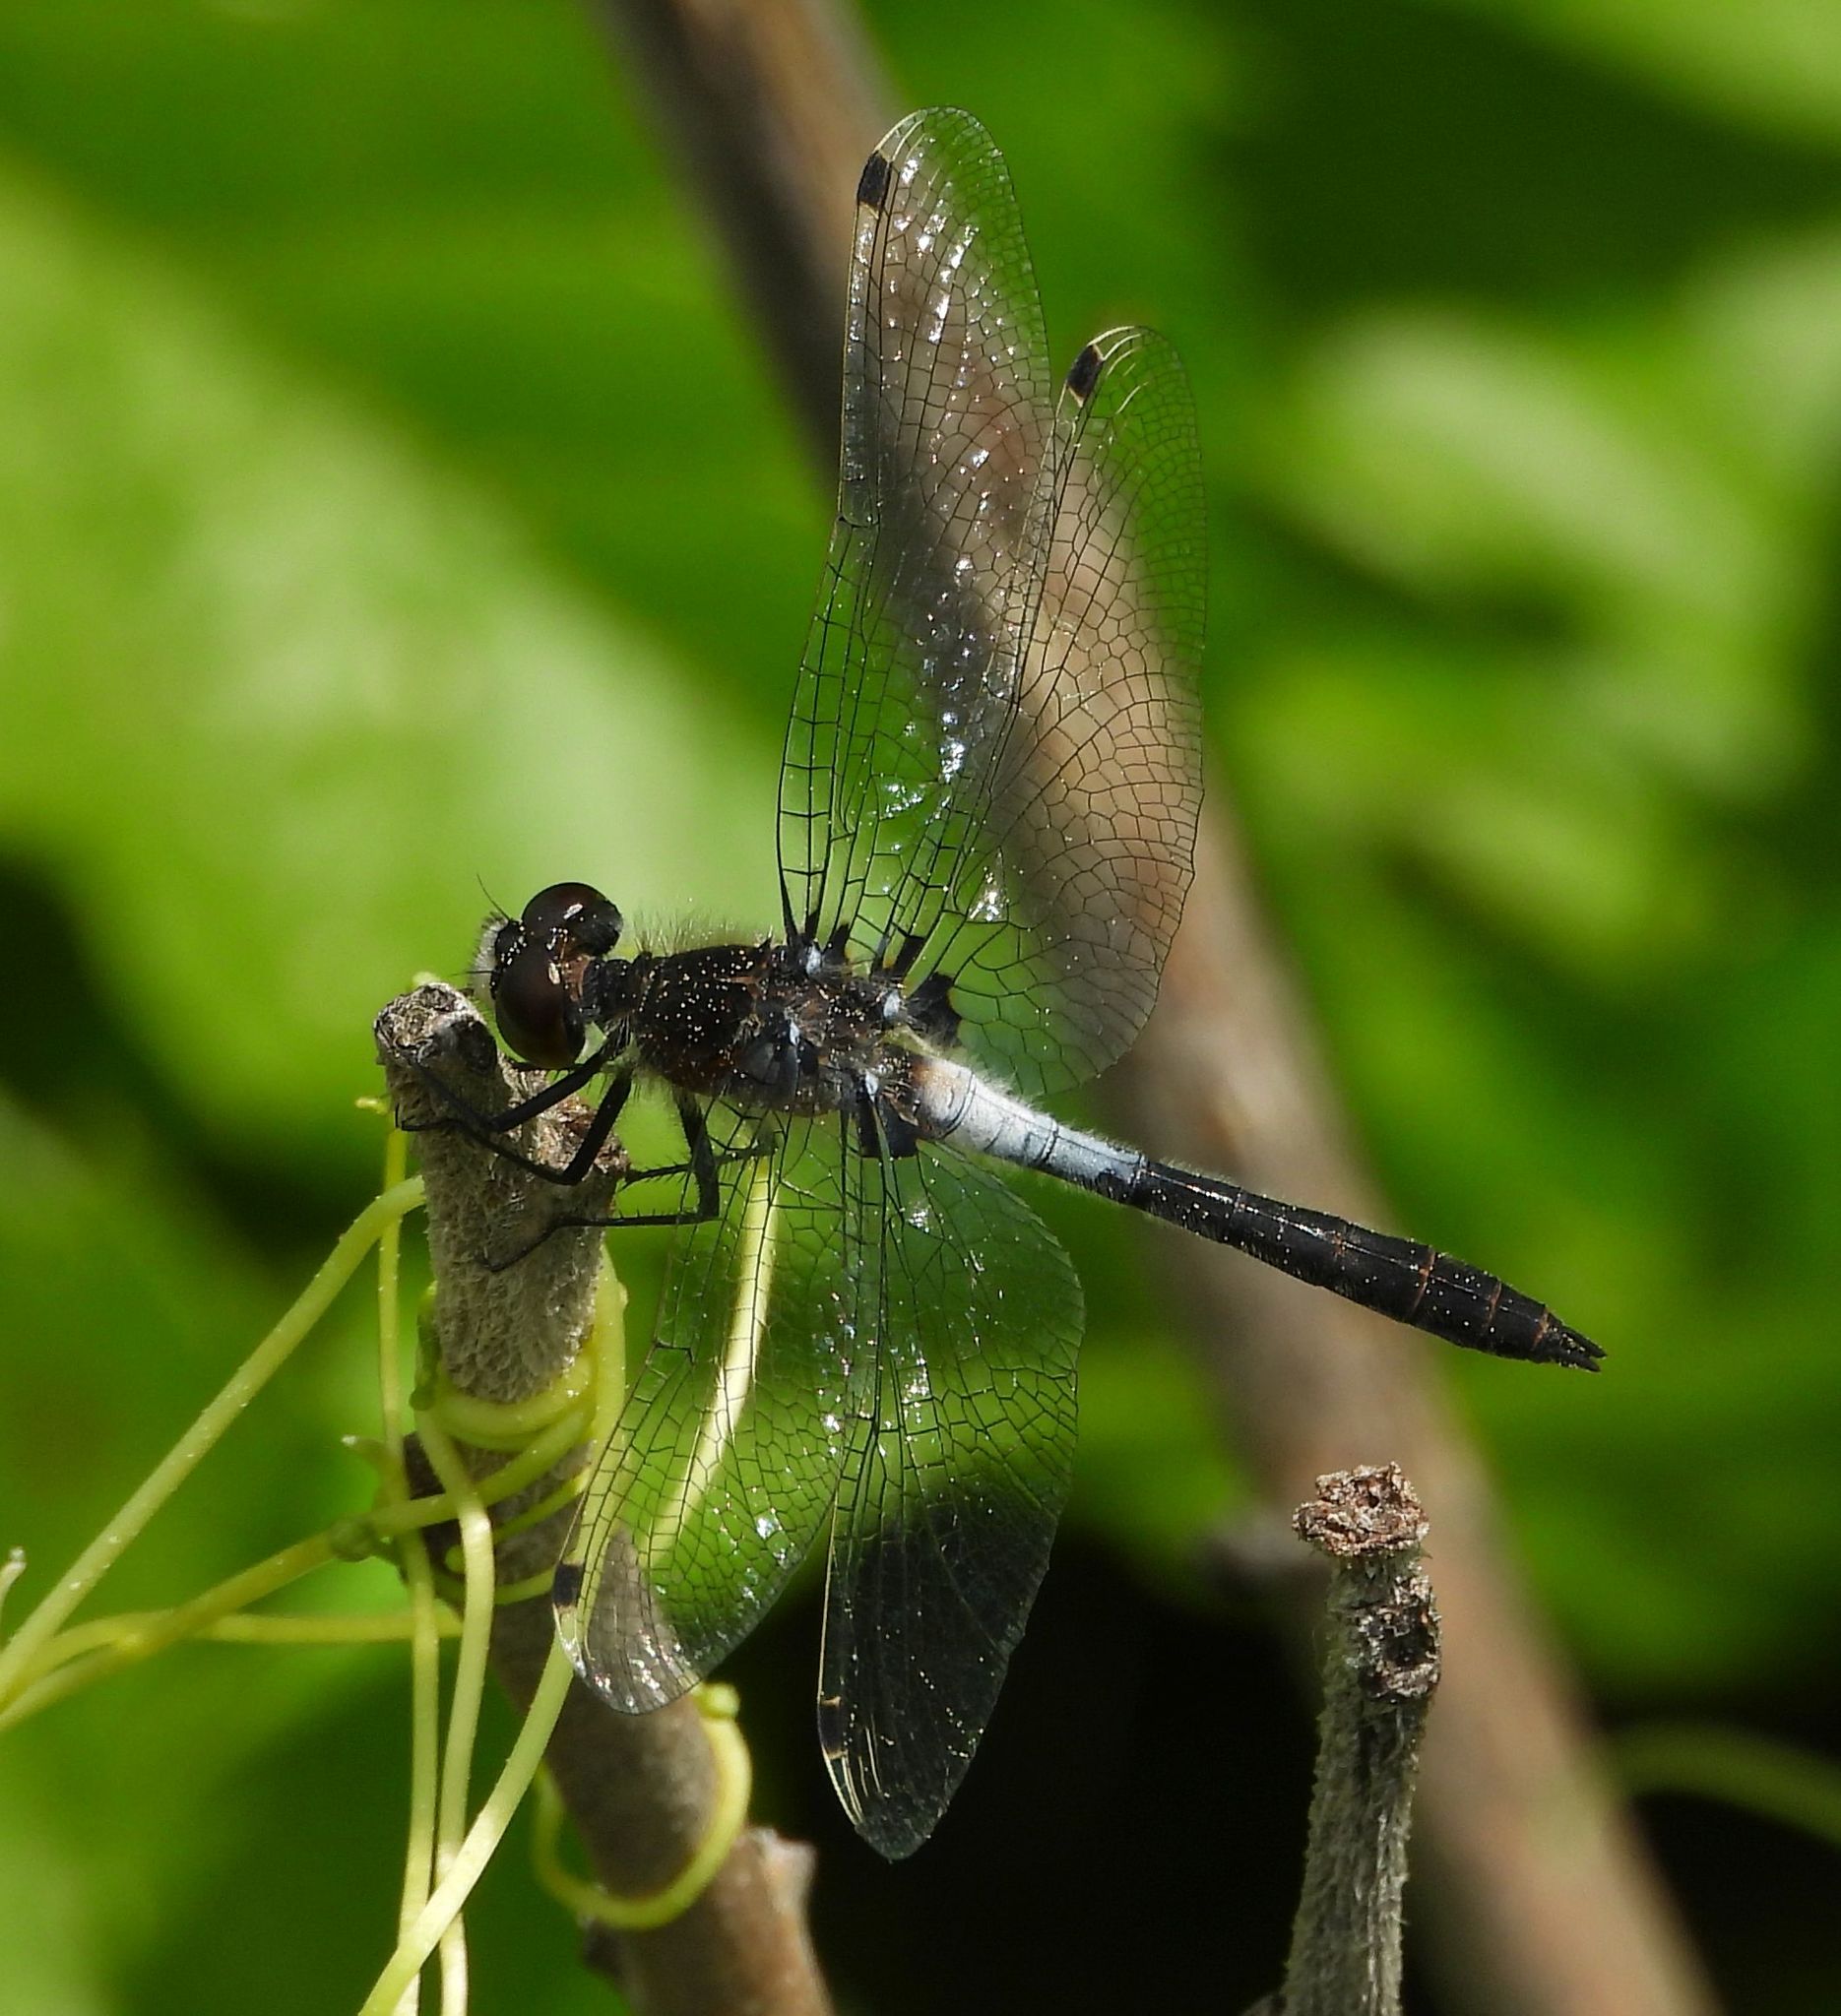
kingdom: Animalia
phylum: Arthropoda
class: Insecta
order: Odonata
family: Libellulidae
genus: Leucorrhinia
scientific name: Leucorrhinia frigida
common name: Frosted whiteface
